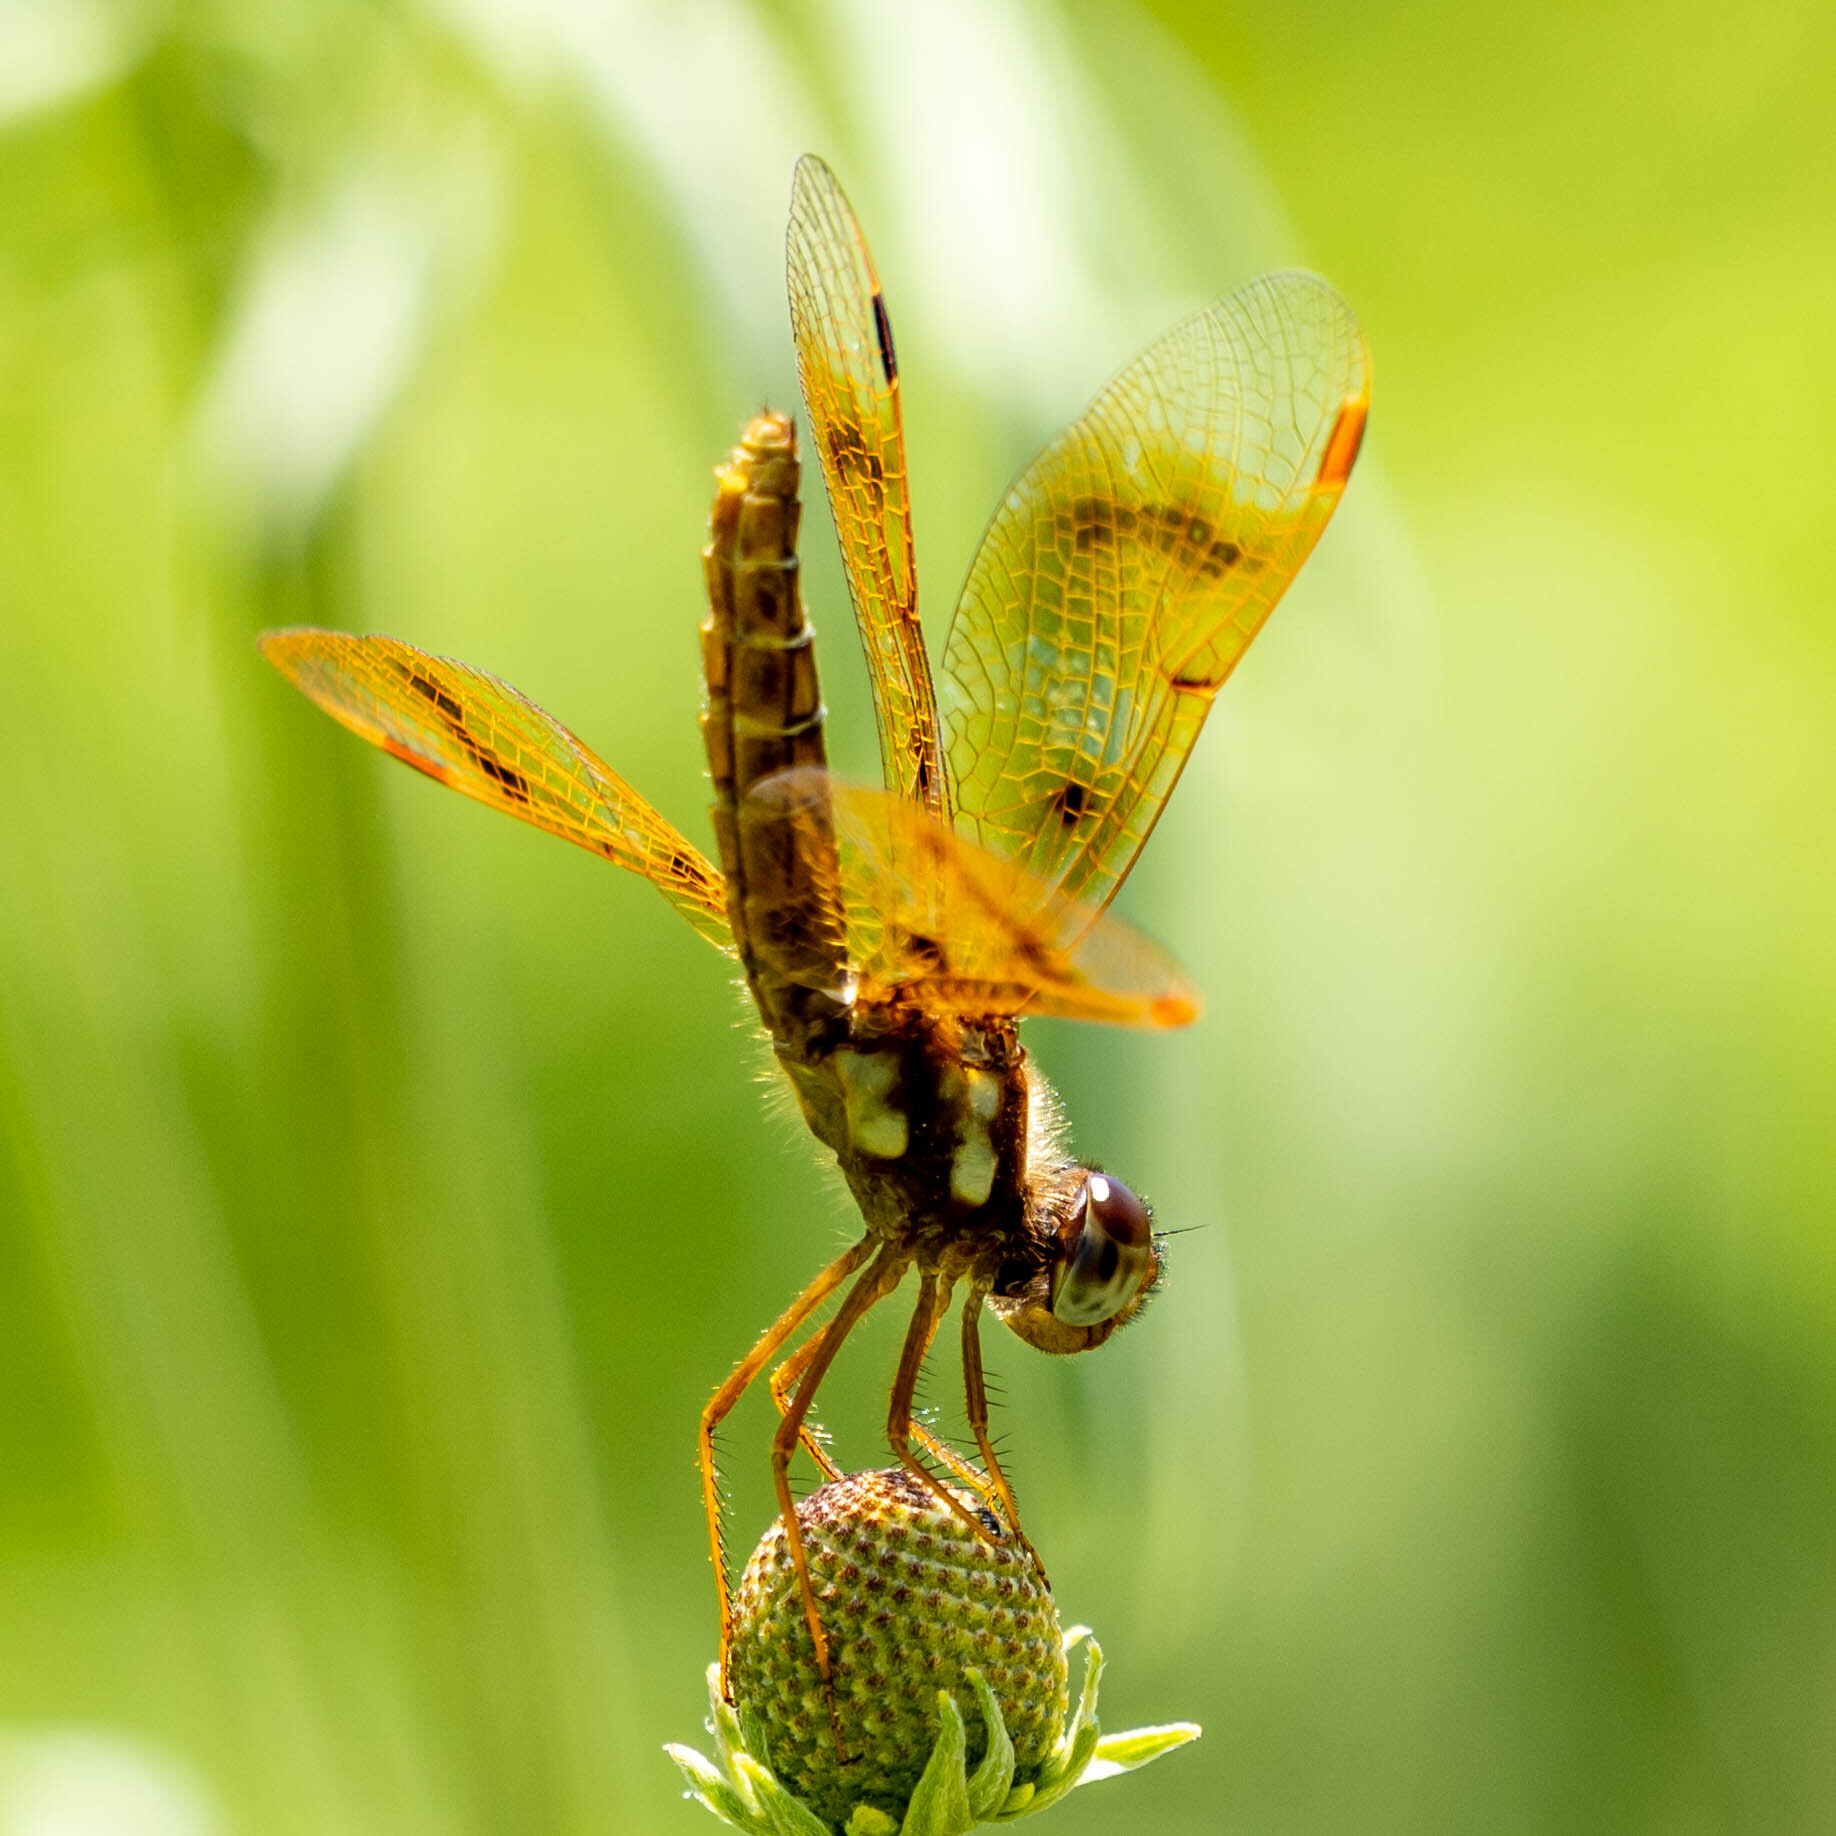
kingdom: Animalia
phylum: Arthropoda
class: Insecta
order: Odonata
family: Libellulidae
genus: Perithemis
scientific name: Perithemis tenera
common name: Eastern amberwing
